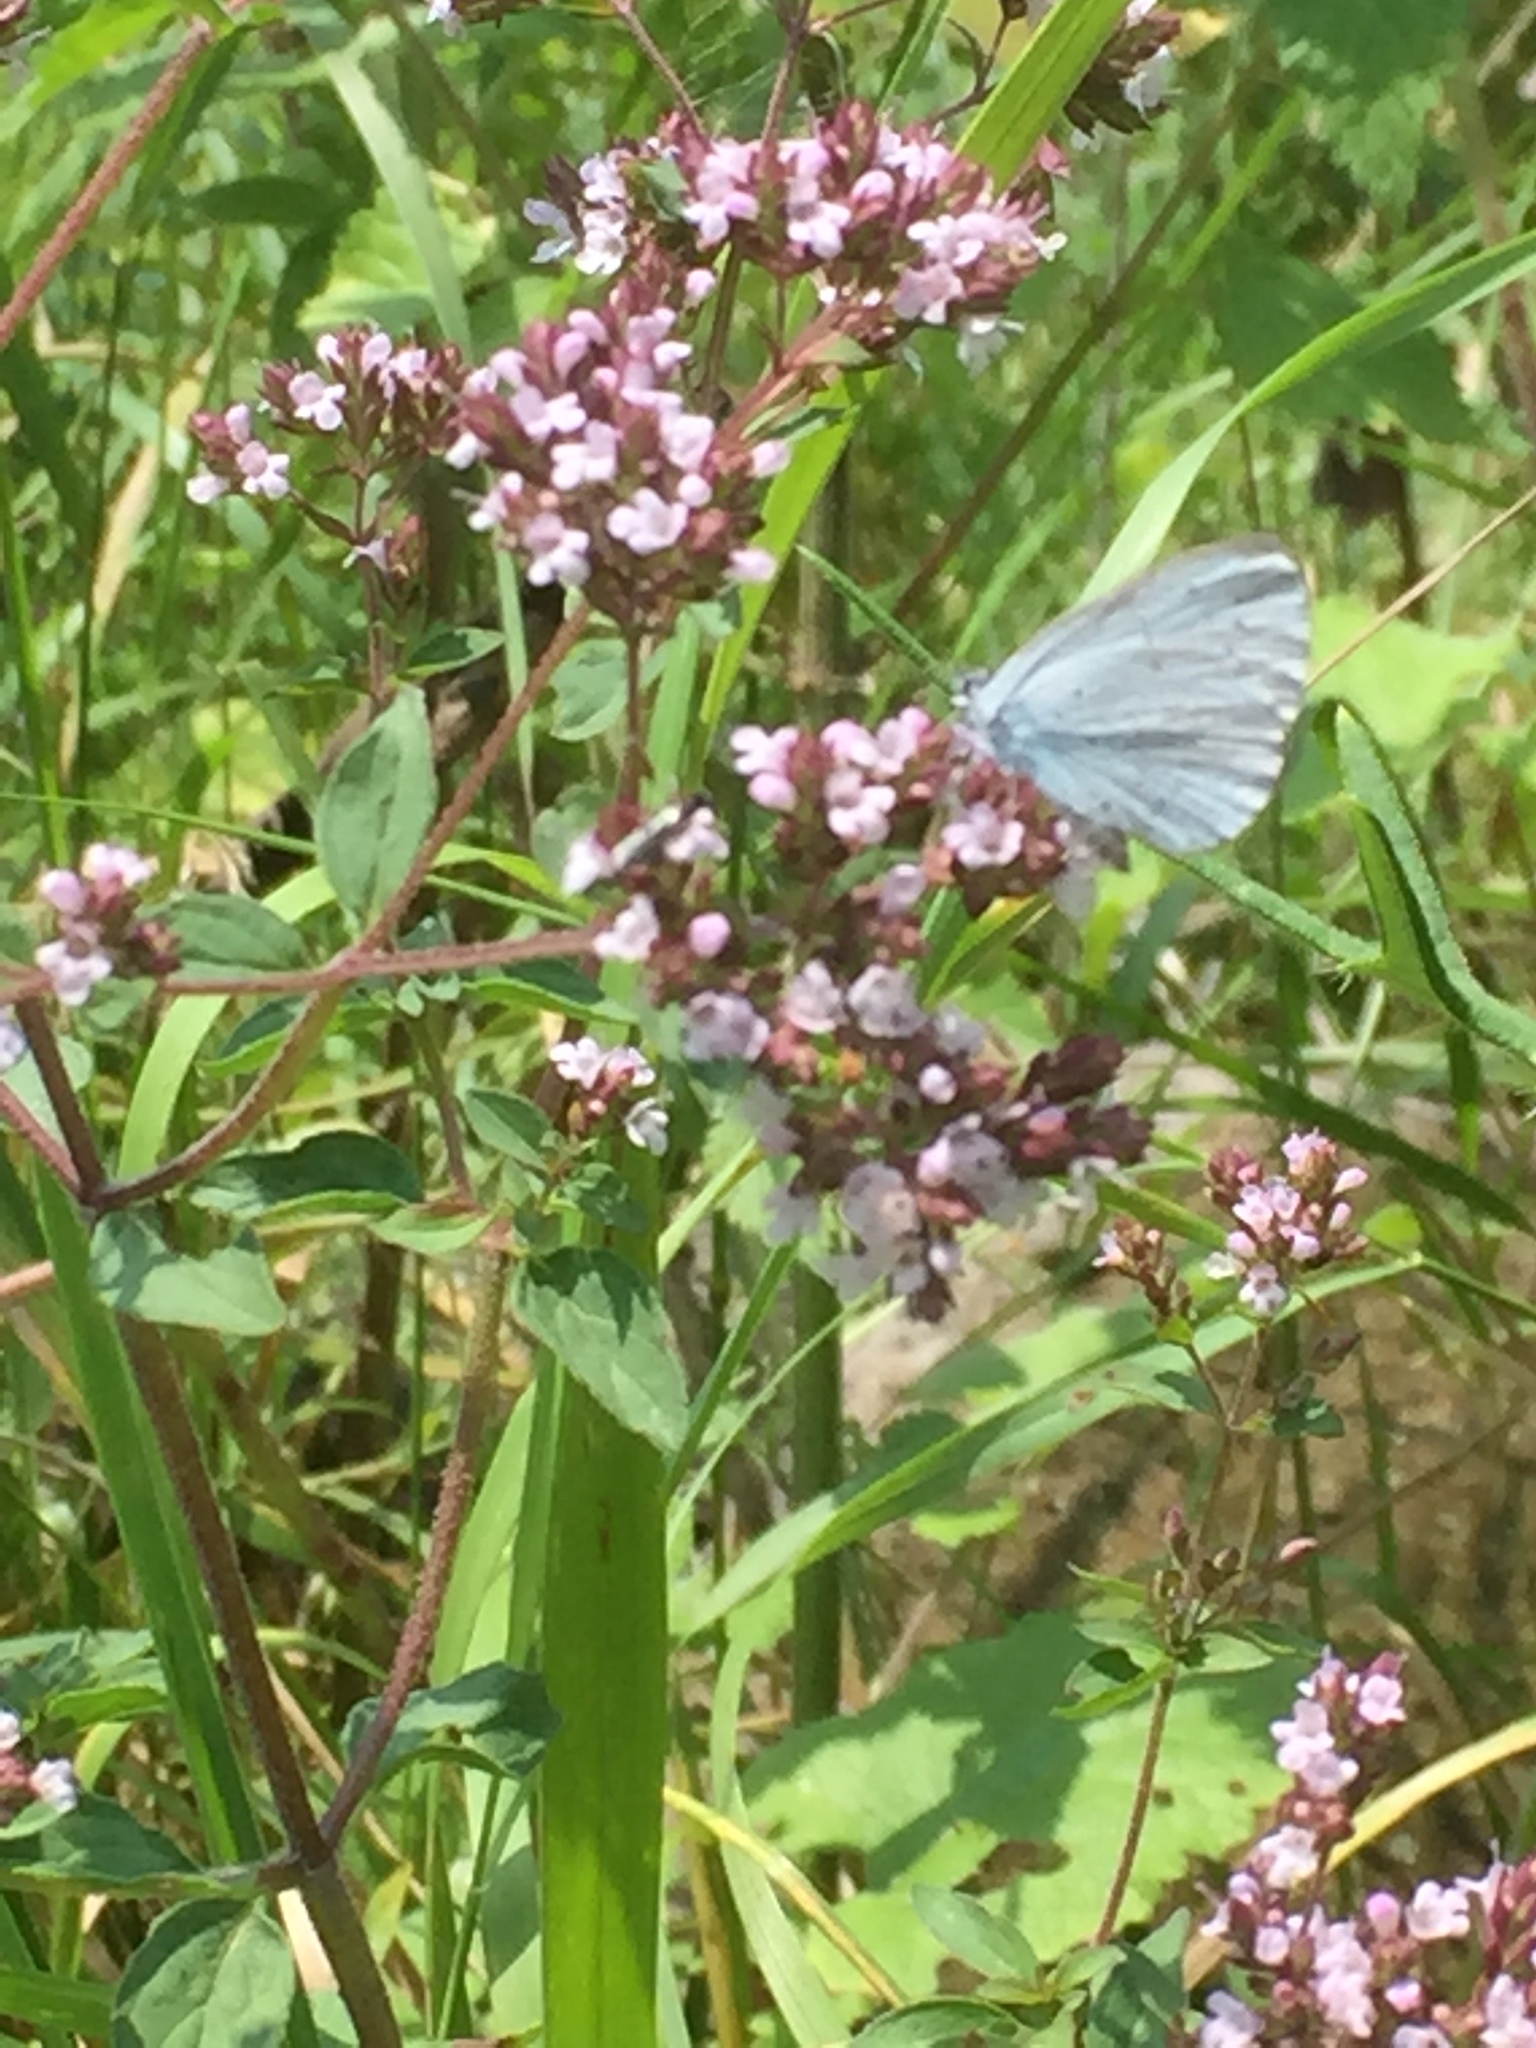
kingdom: Animalia
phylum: Arthropoda
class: Insecta
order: Lepidoptera
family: Lycaenidae
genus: Celastrina
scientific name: Celastrina argiolus
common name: Holly blue
